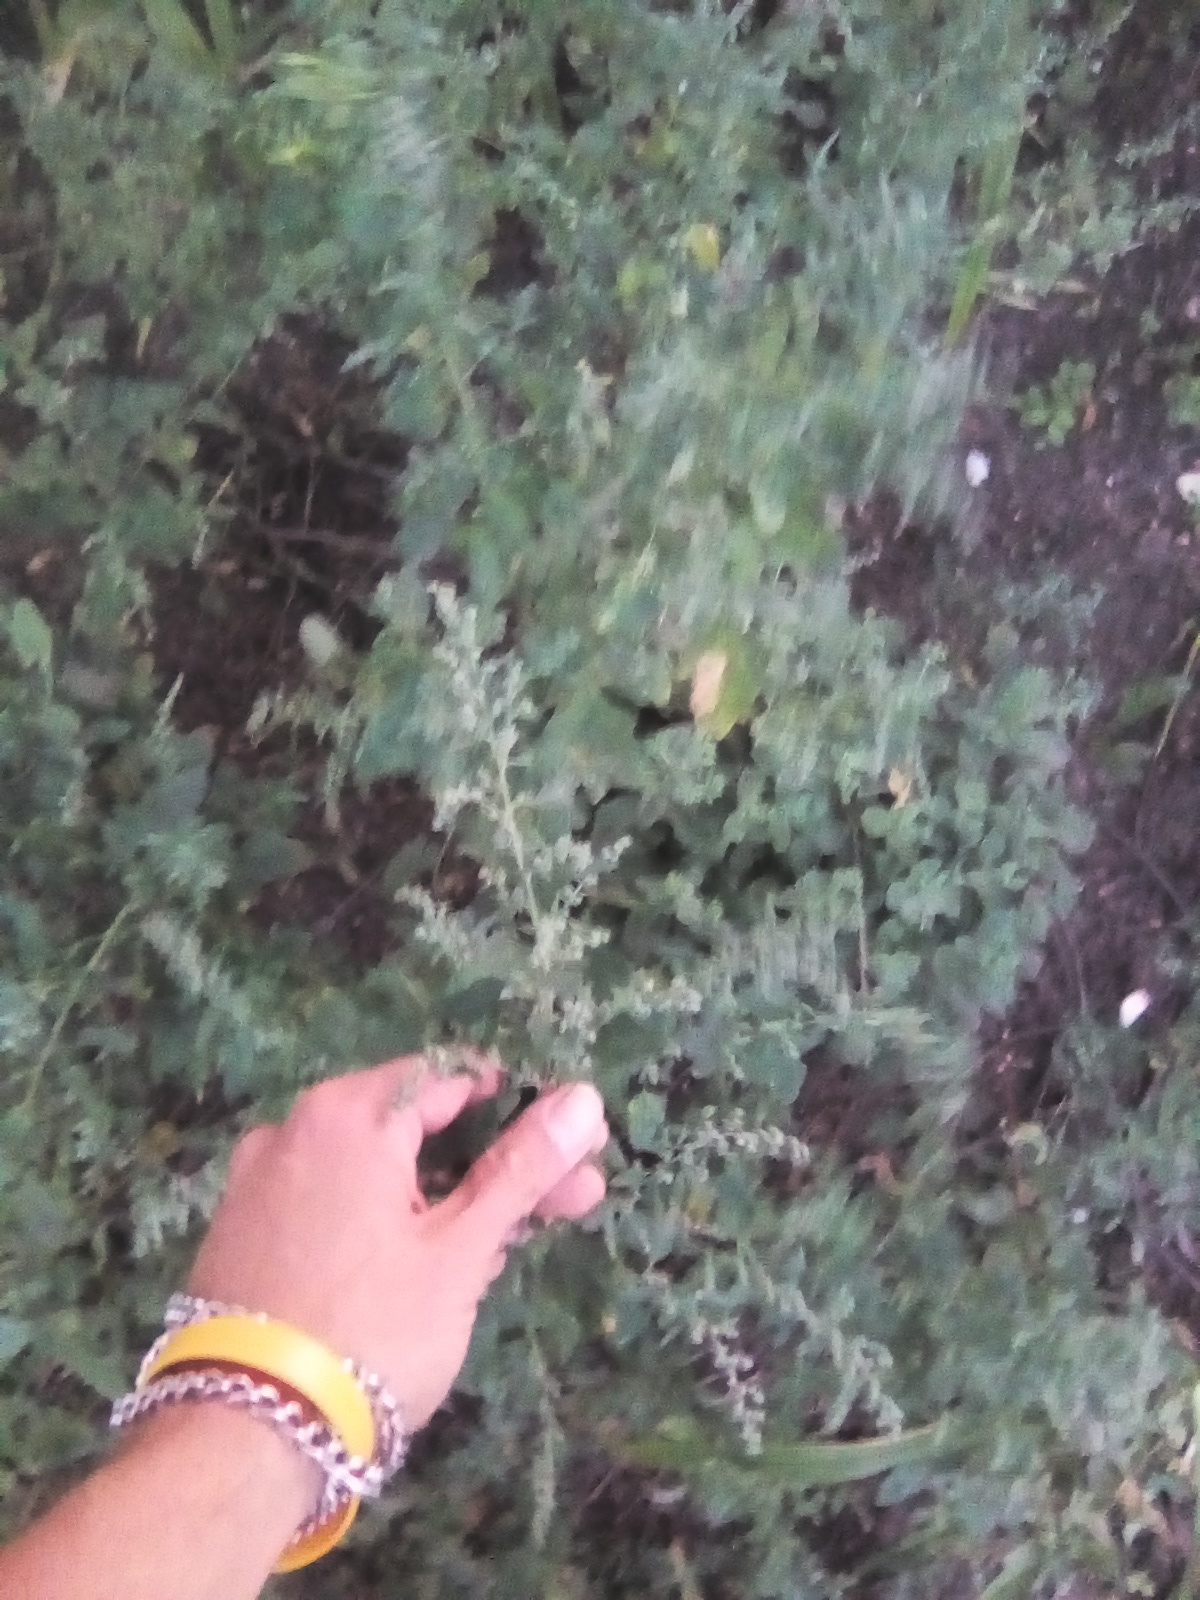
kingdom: Plantae
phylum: Tracheophyta
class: Magnoliopsida
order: Caryophyllales
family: Amaranthaceae
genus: Chenopodium
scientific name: Chenopodium album
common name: Fat-hen
